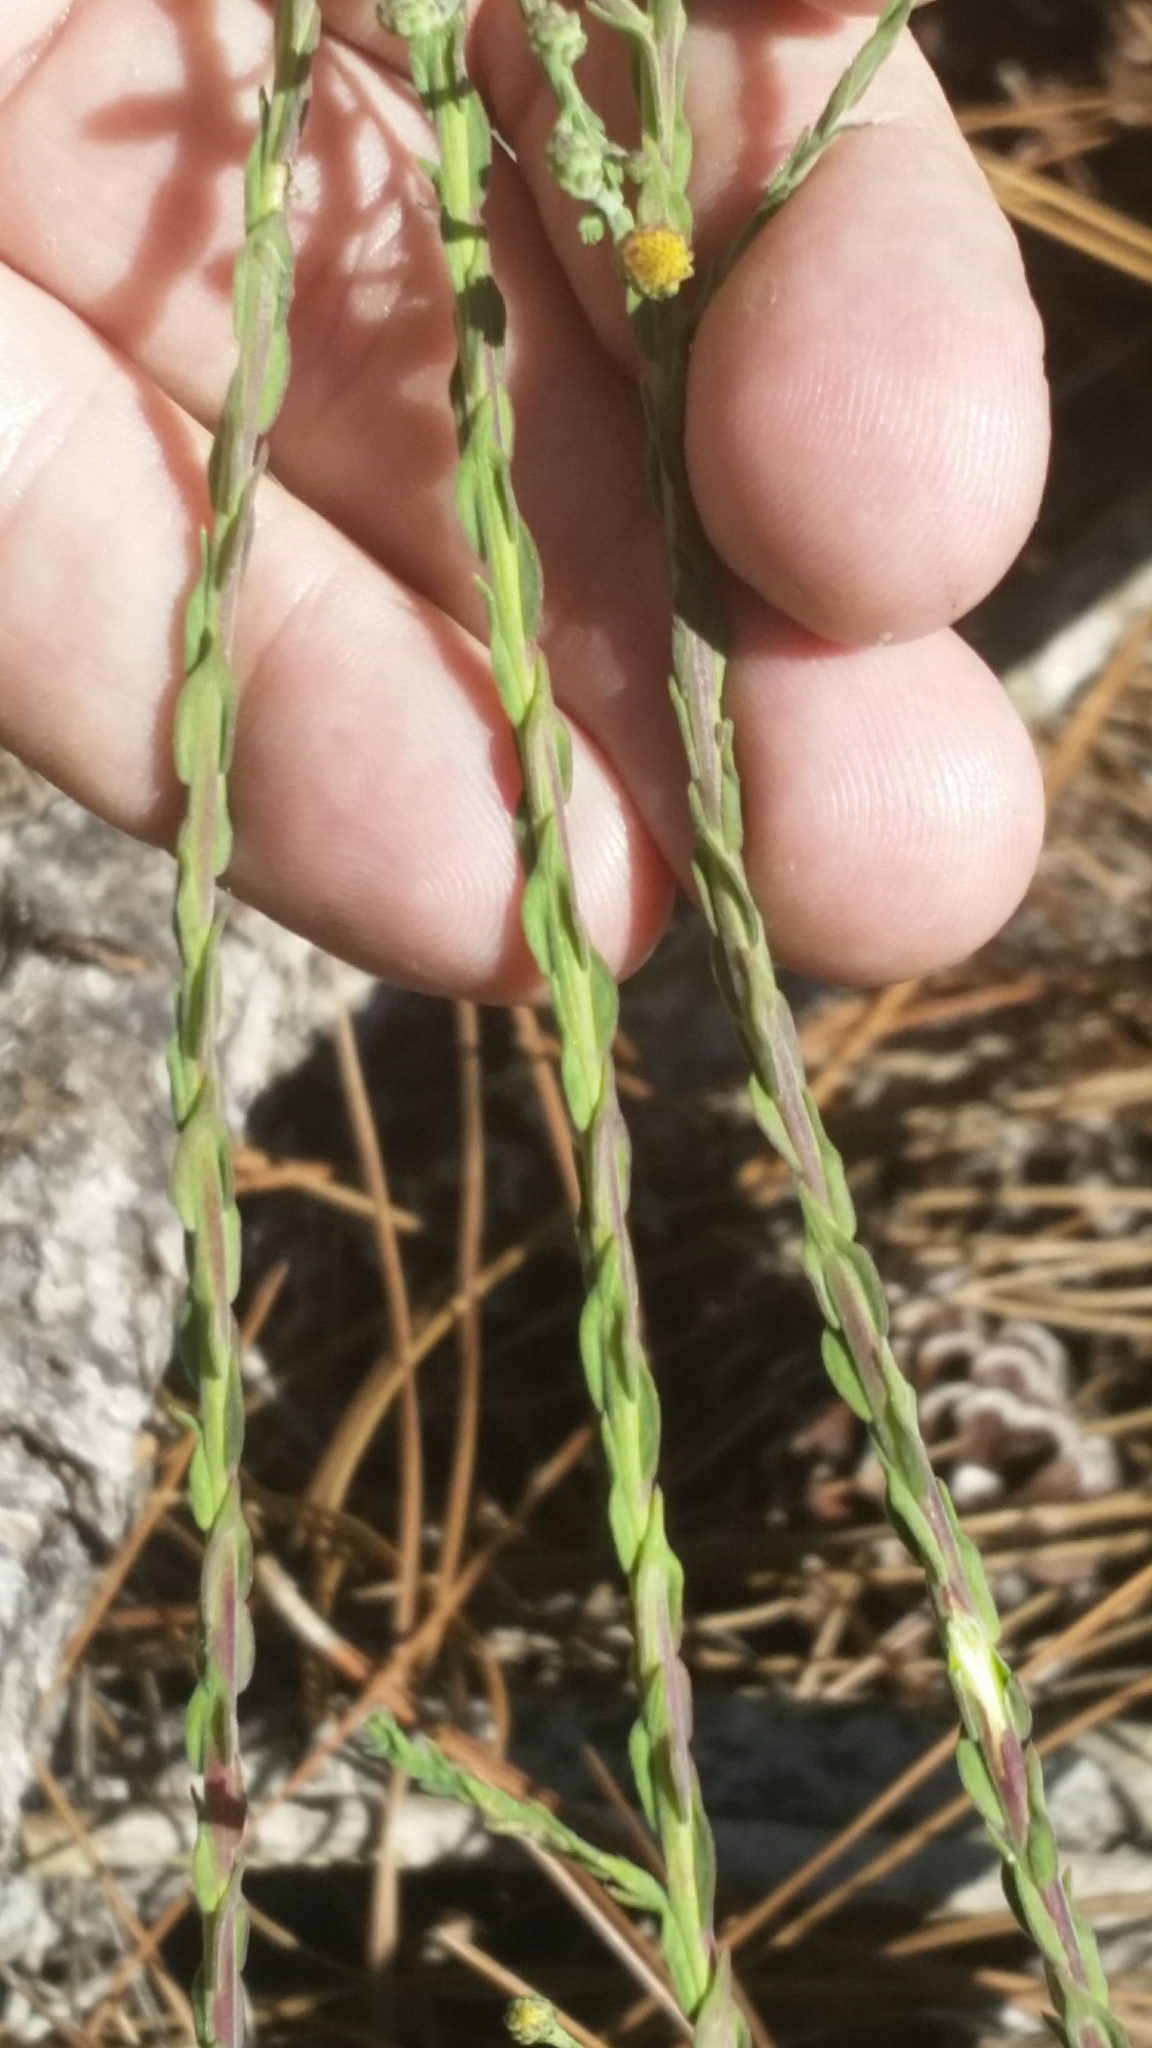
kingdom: Plantae
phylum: Tracheophyta
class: Magnoliopsida
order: Asterales
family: Asteraceae
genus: Symphyotrichum
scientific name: Symphyotrichum adnatum
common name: Scale-leaf aster
